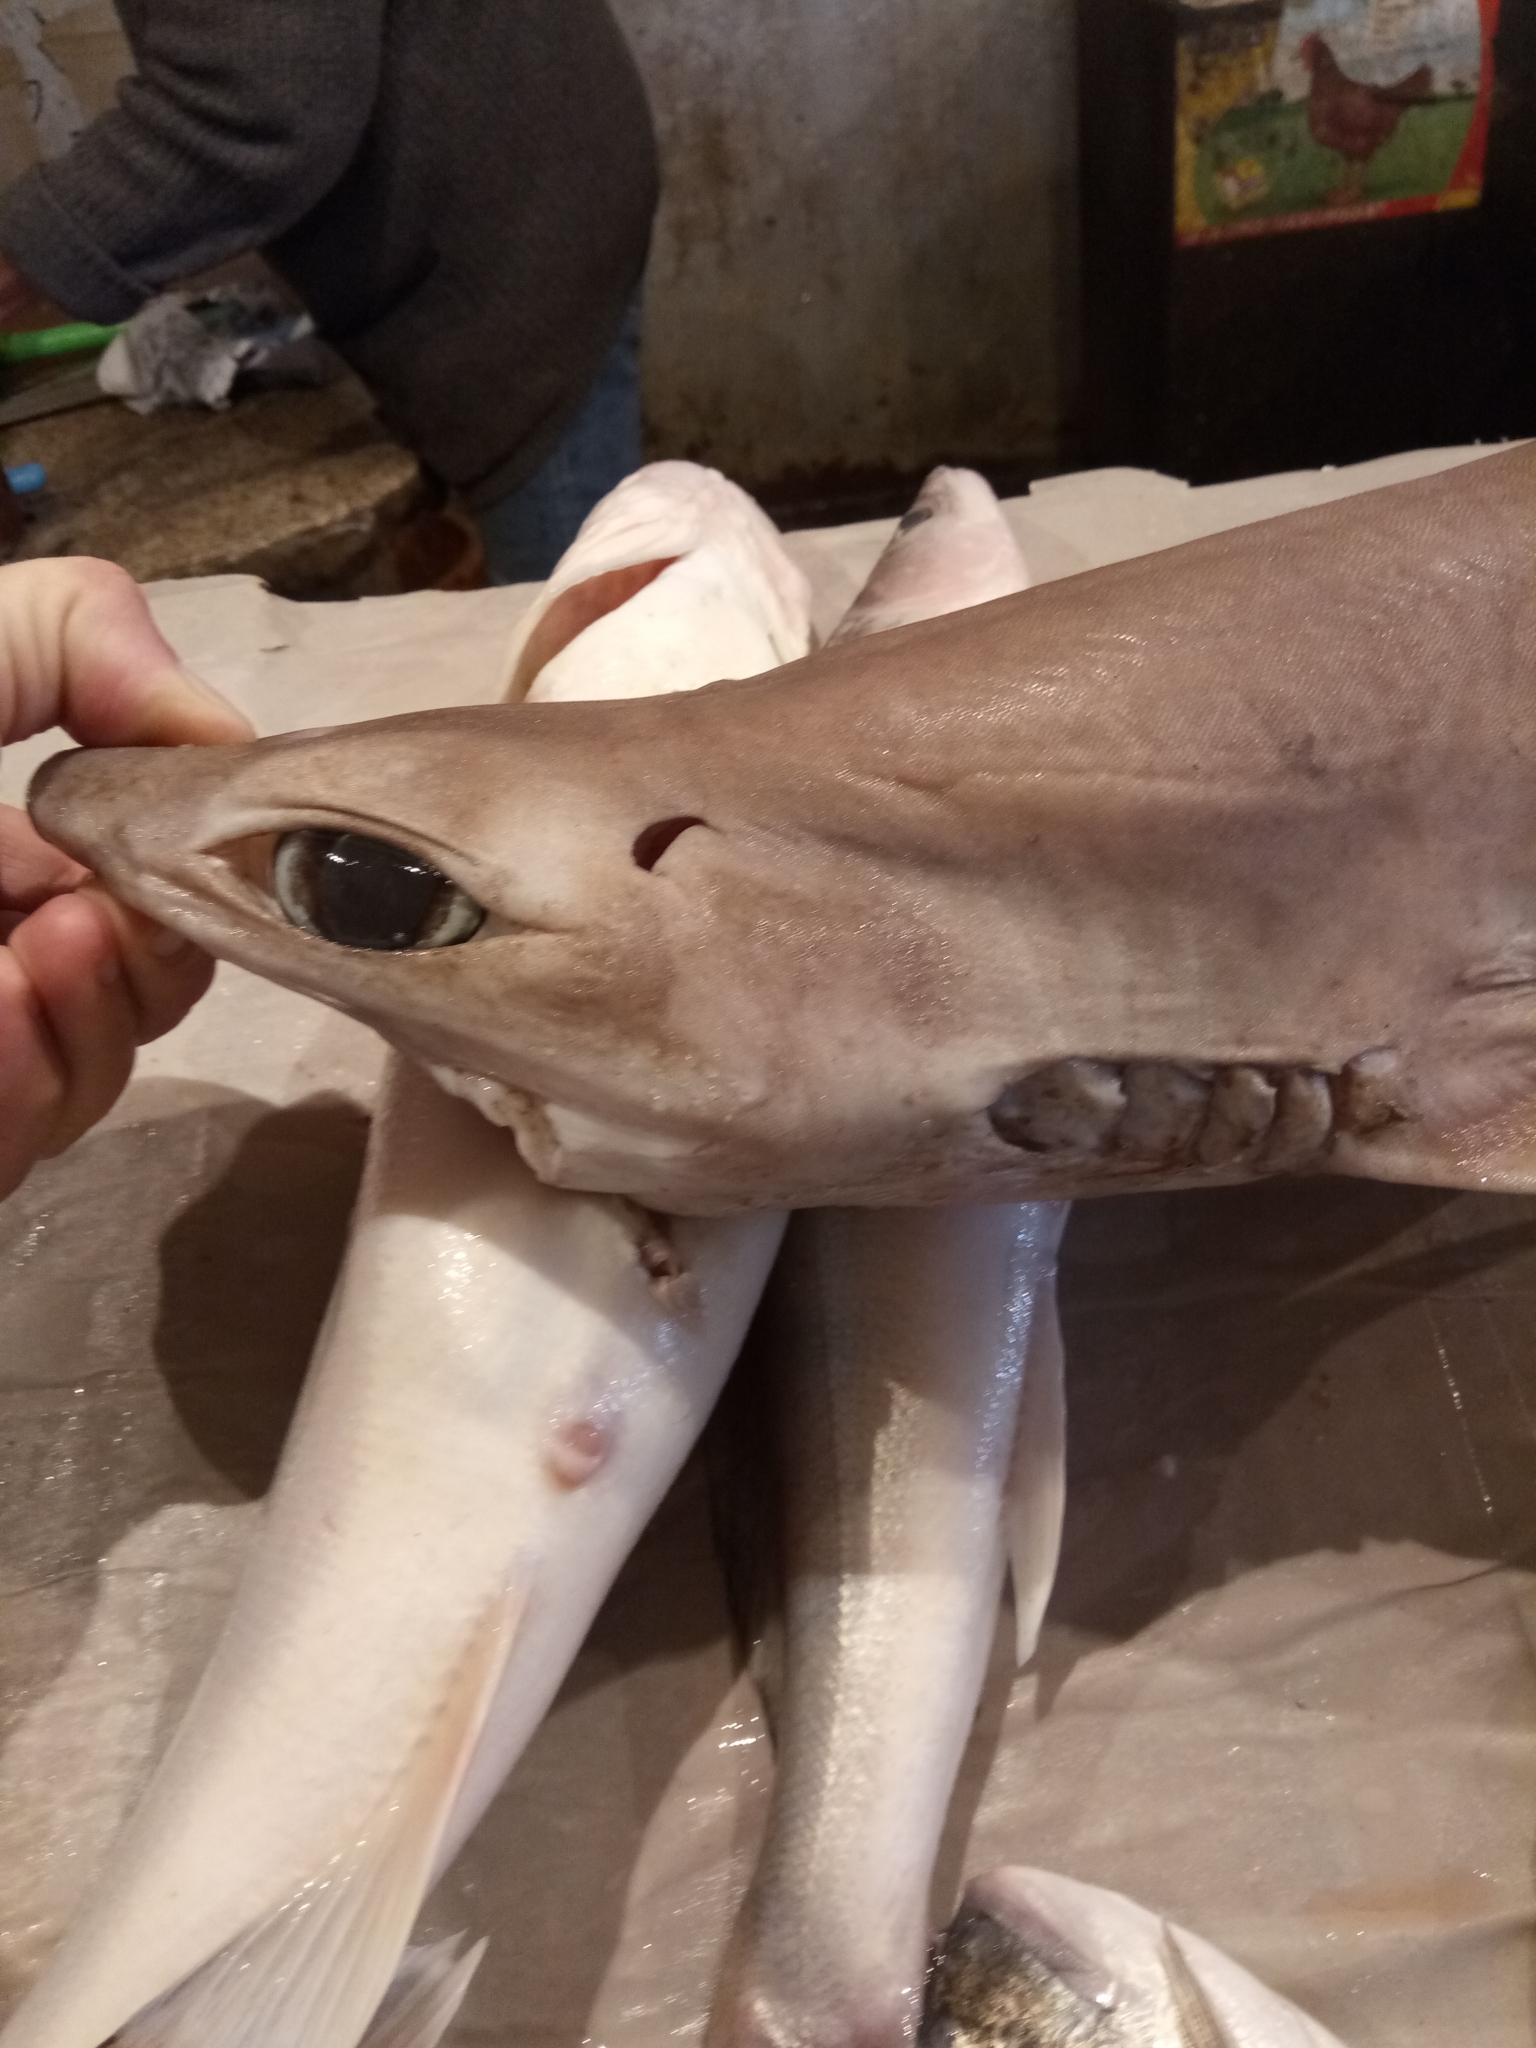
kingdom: Animalia
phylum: Chordata
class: Elasmobranchii
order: Squaliformes
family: Centrophoridae
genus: Centrophorus
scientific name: Centrophorus uyato
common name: Little gulper shark
